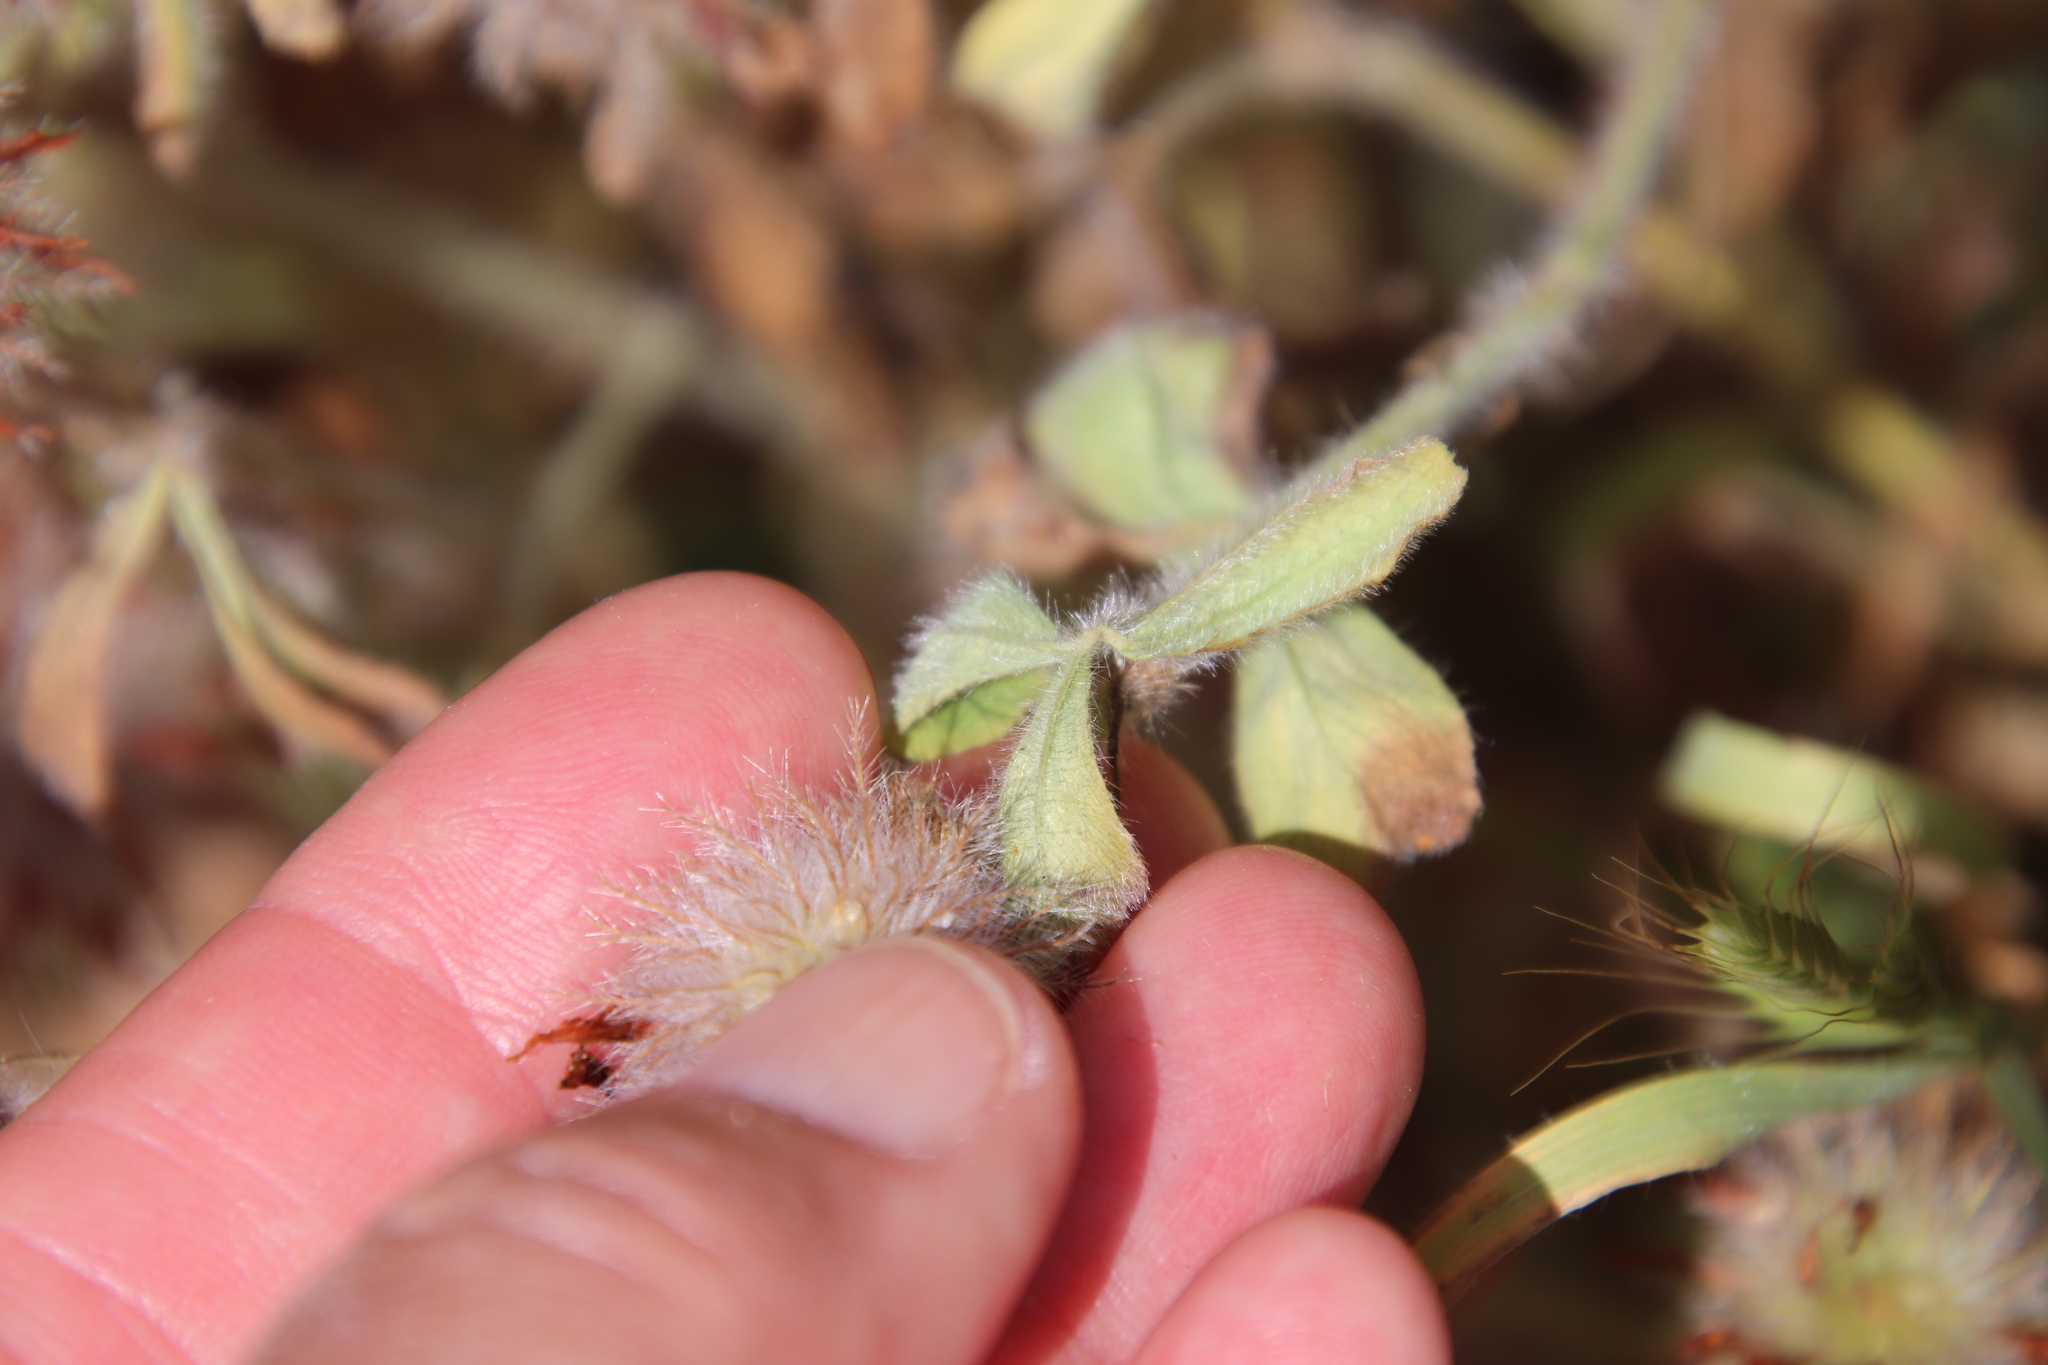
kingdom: Plantae
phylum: Tracheophyta
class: Magnoliopsida
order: Fabales
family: Fabaceae
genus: Trifolium
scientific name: Trifolium hirtum
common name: Rose clover
